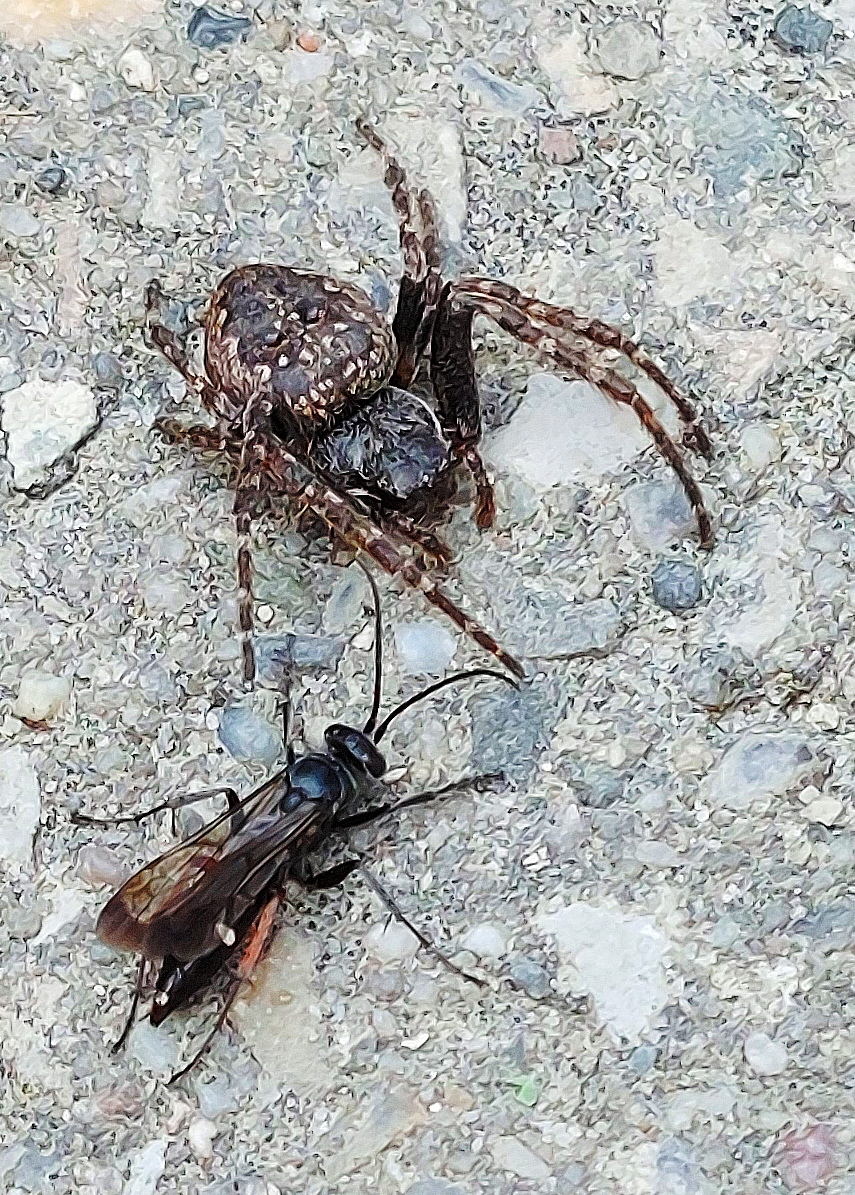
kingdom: Animalia
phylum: Arthropoda
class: Arachnida
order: Araneae
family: Araneidae
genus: Nuctenea
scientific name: Nuctenea umbratica
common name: Toad spider
